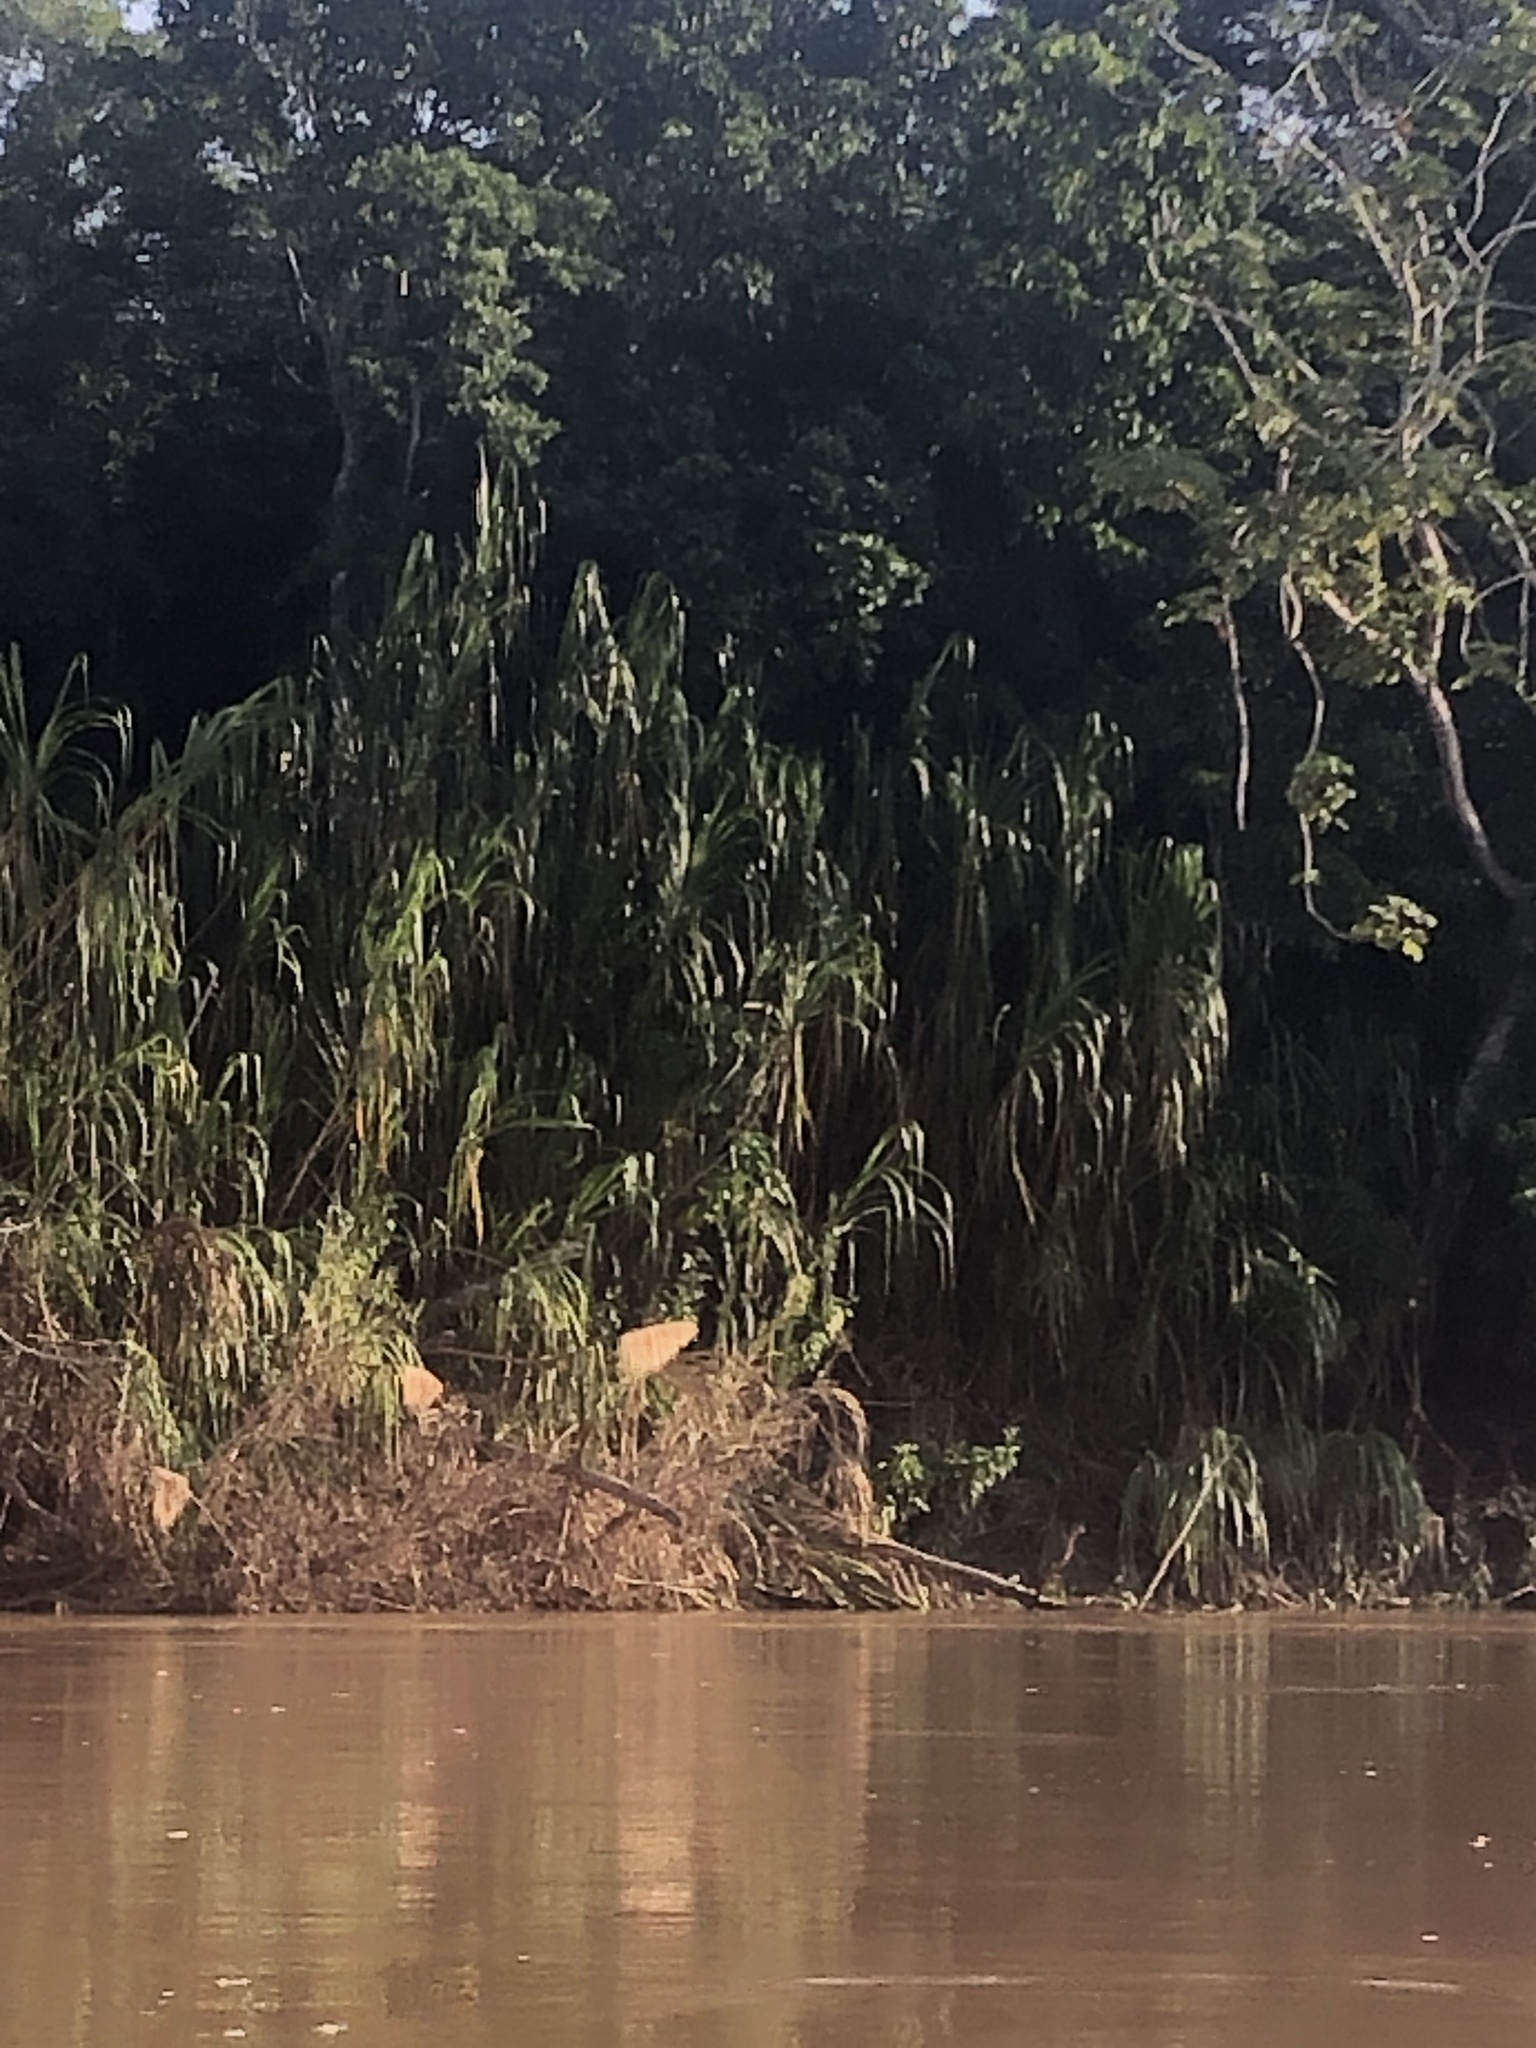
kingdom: Plantae
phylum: Tracheophyta
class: Liliopsida
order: Poales
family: Poaceae
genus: Gynerium
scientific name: Gynerium sagittatum
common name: Wild cane
